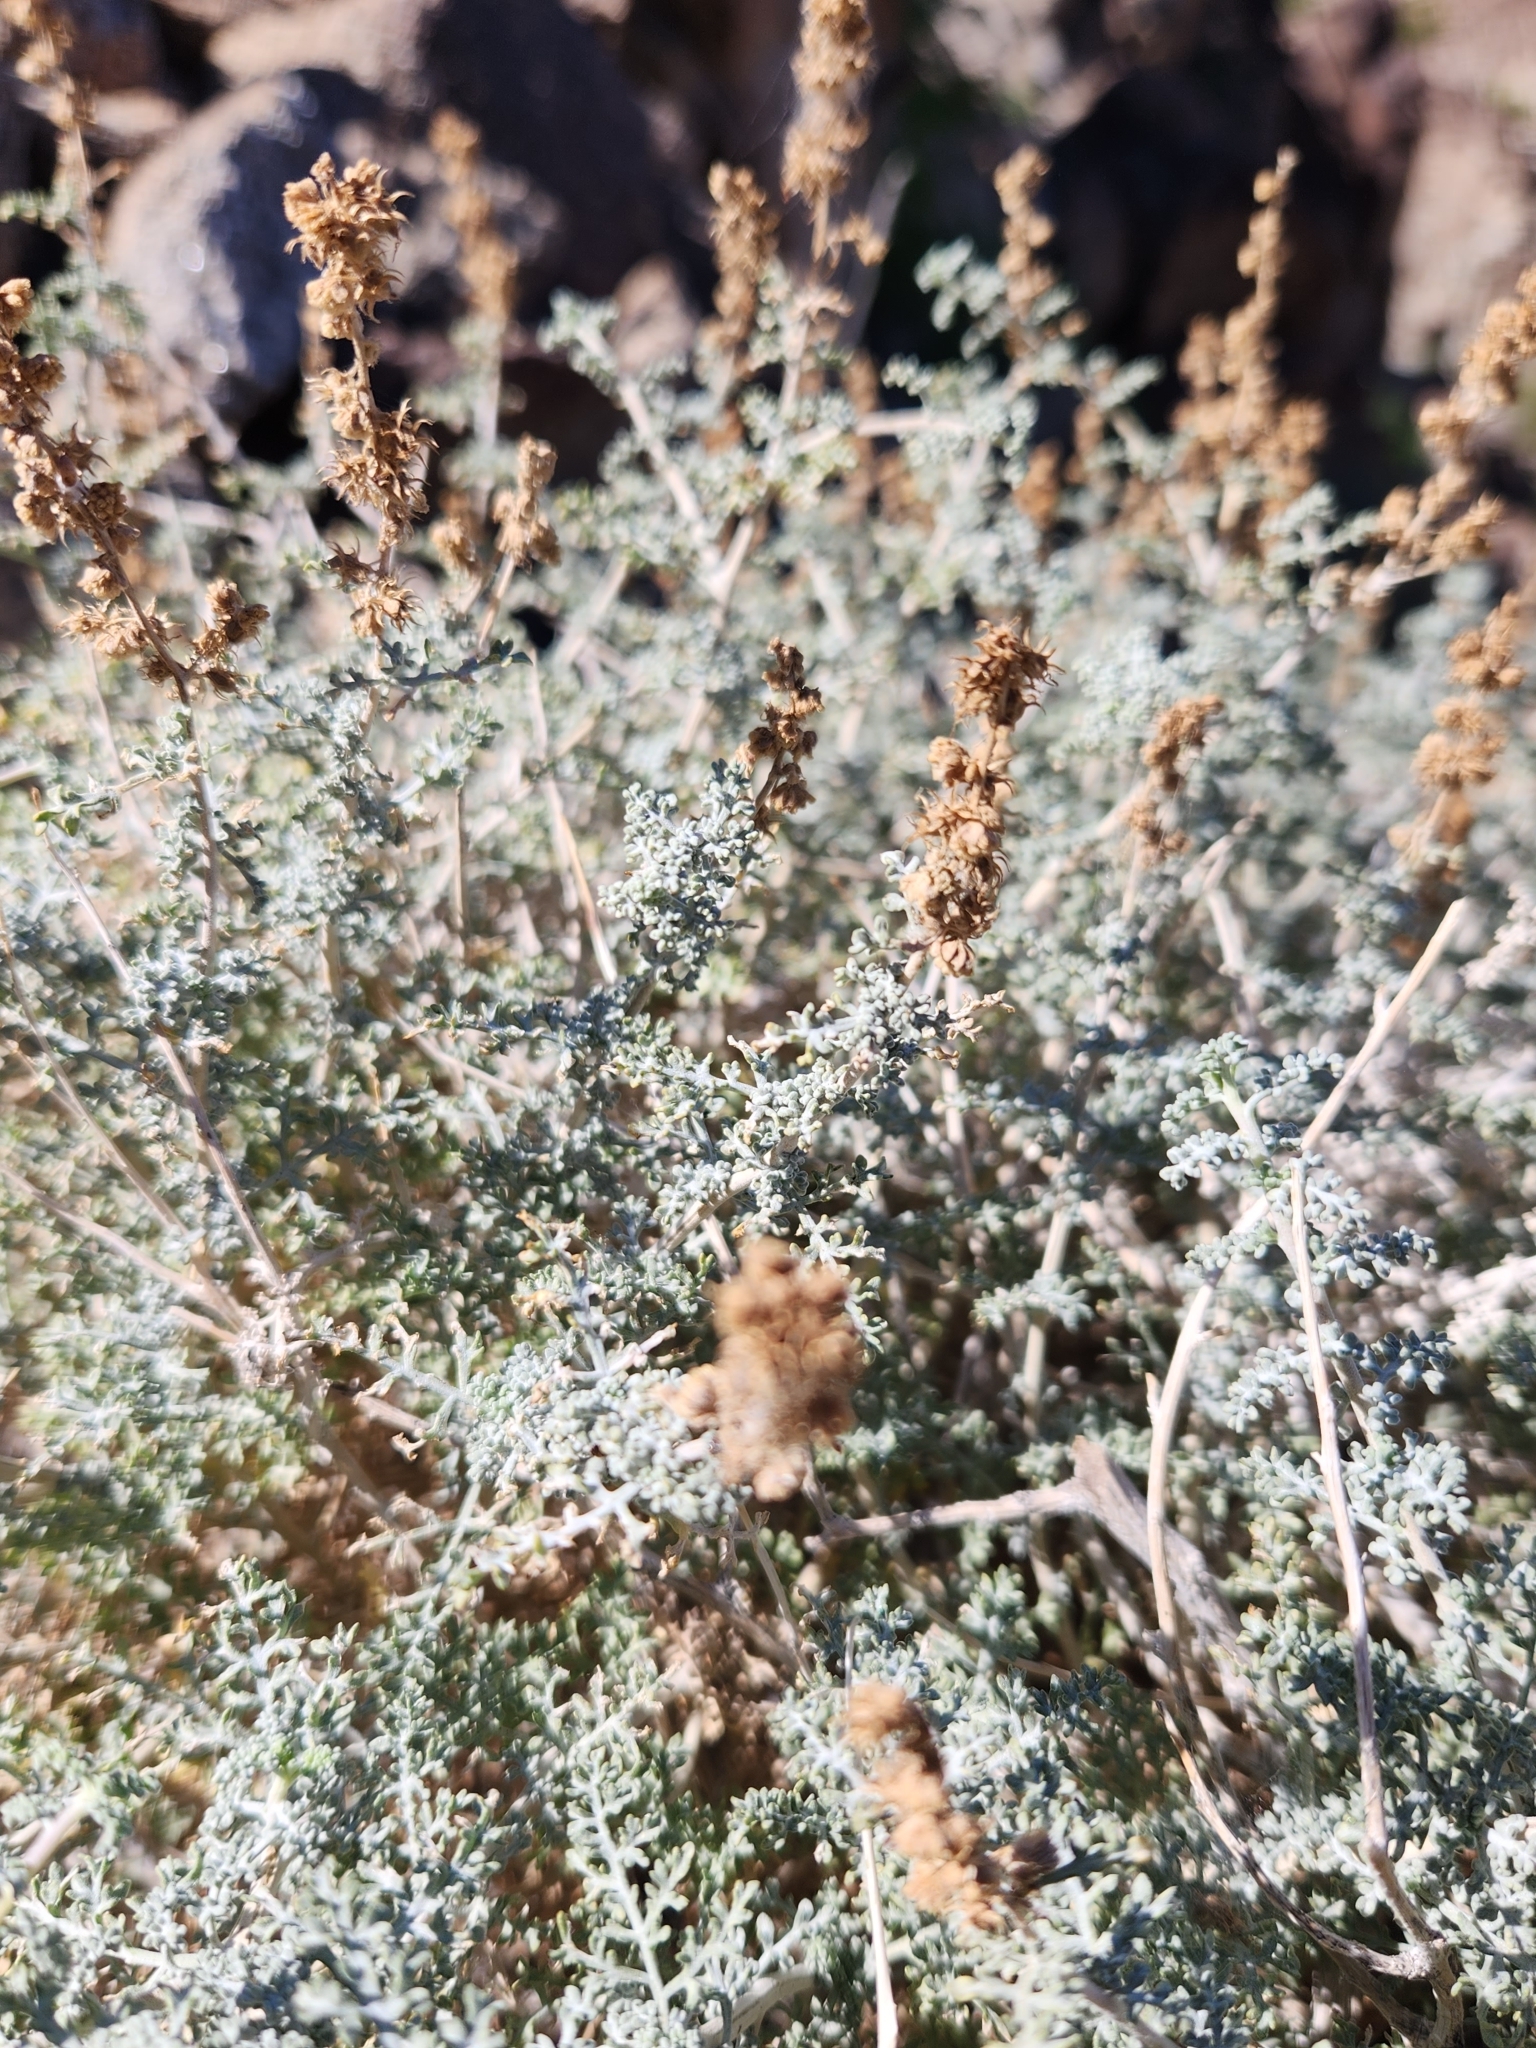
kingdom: Plantae
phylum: Tracheophyta
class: Magnoliopsida
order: Asterales
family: Asteraceae
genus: Ambrosia
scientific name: Ambrosia dumosa
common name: Bur-sage
